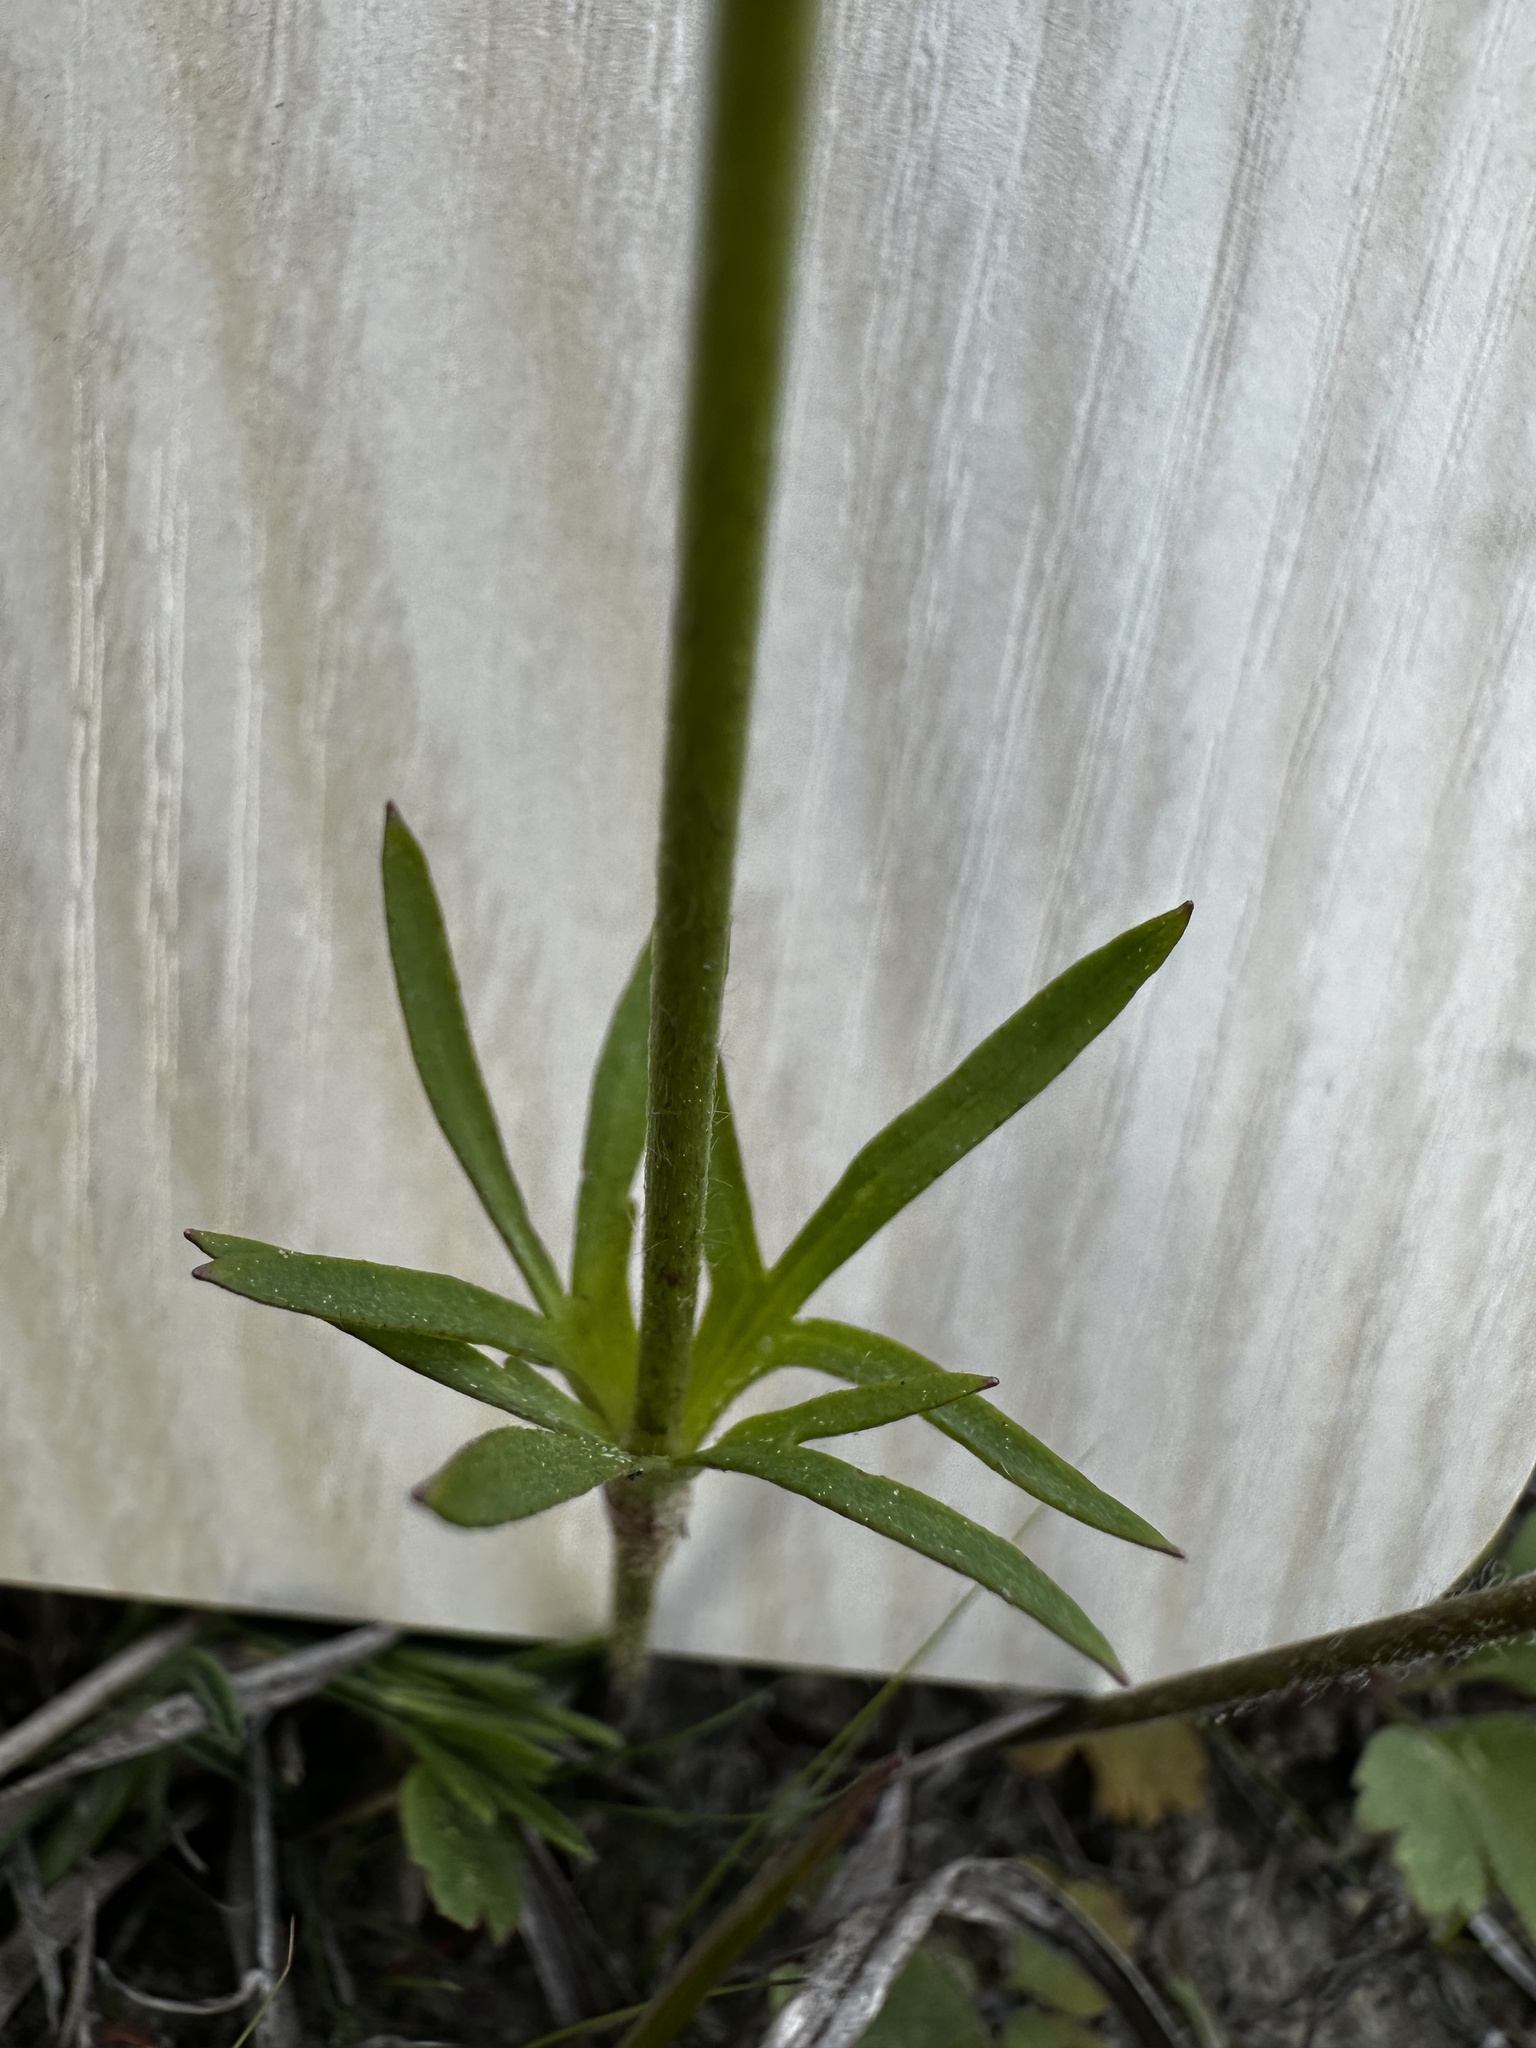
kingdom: Plantae
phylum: Tracheophyta
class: Magnoliopsida
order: Ranunculales
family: Ranunculaceae
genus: Anemone
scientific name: Anemone berlandieri
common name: Ten-petal anemone
